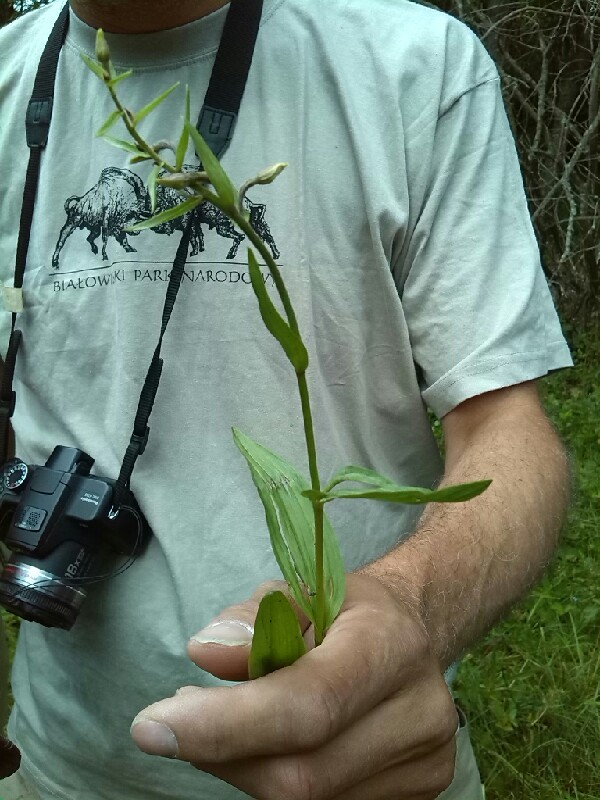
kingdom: Plantae
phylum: Tracheophyta
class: Liliopsida
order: Asparagales
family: Orchidaceae
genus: Epipactis
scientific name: Epipactis palustris
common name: Marsh helleborine
